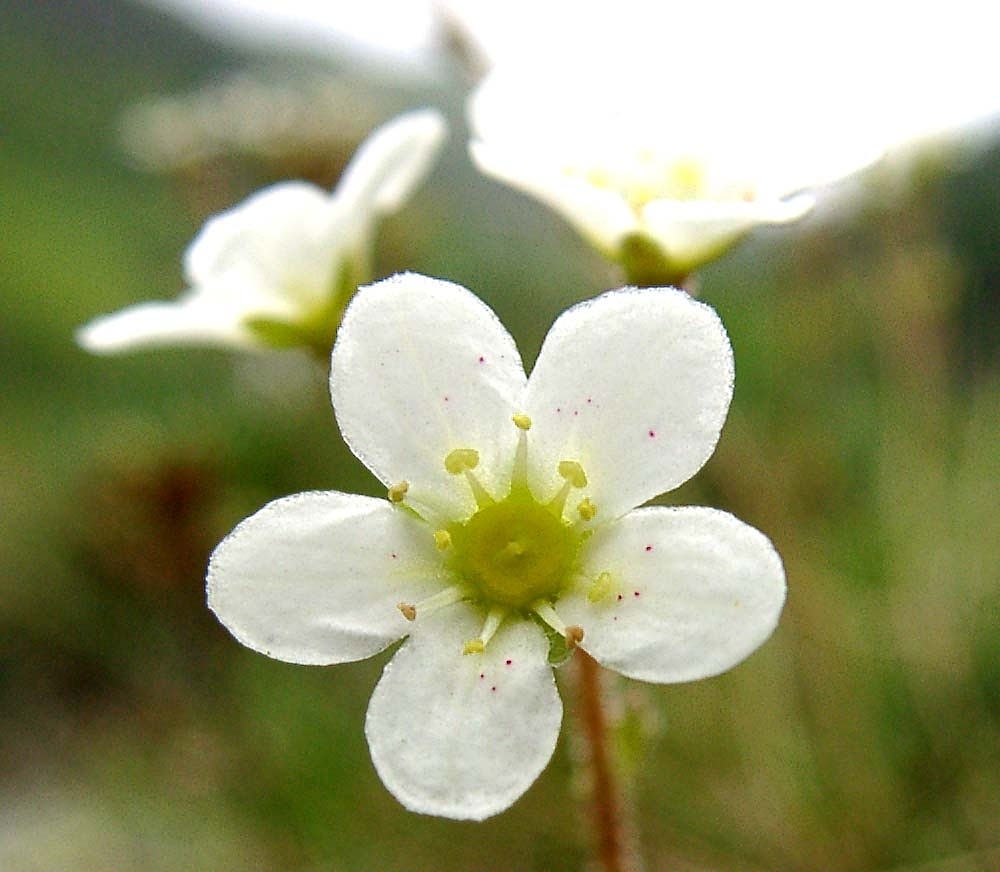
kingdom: Plantae
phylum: Tracheophyta
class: Magnoliopsida
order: Saxifragales
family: Saxifragaceae
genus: Saxifraga
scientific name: Saxifraga paniculata
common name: Livelong saxifrage
